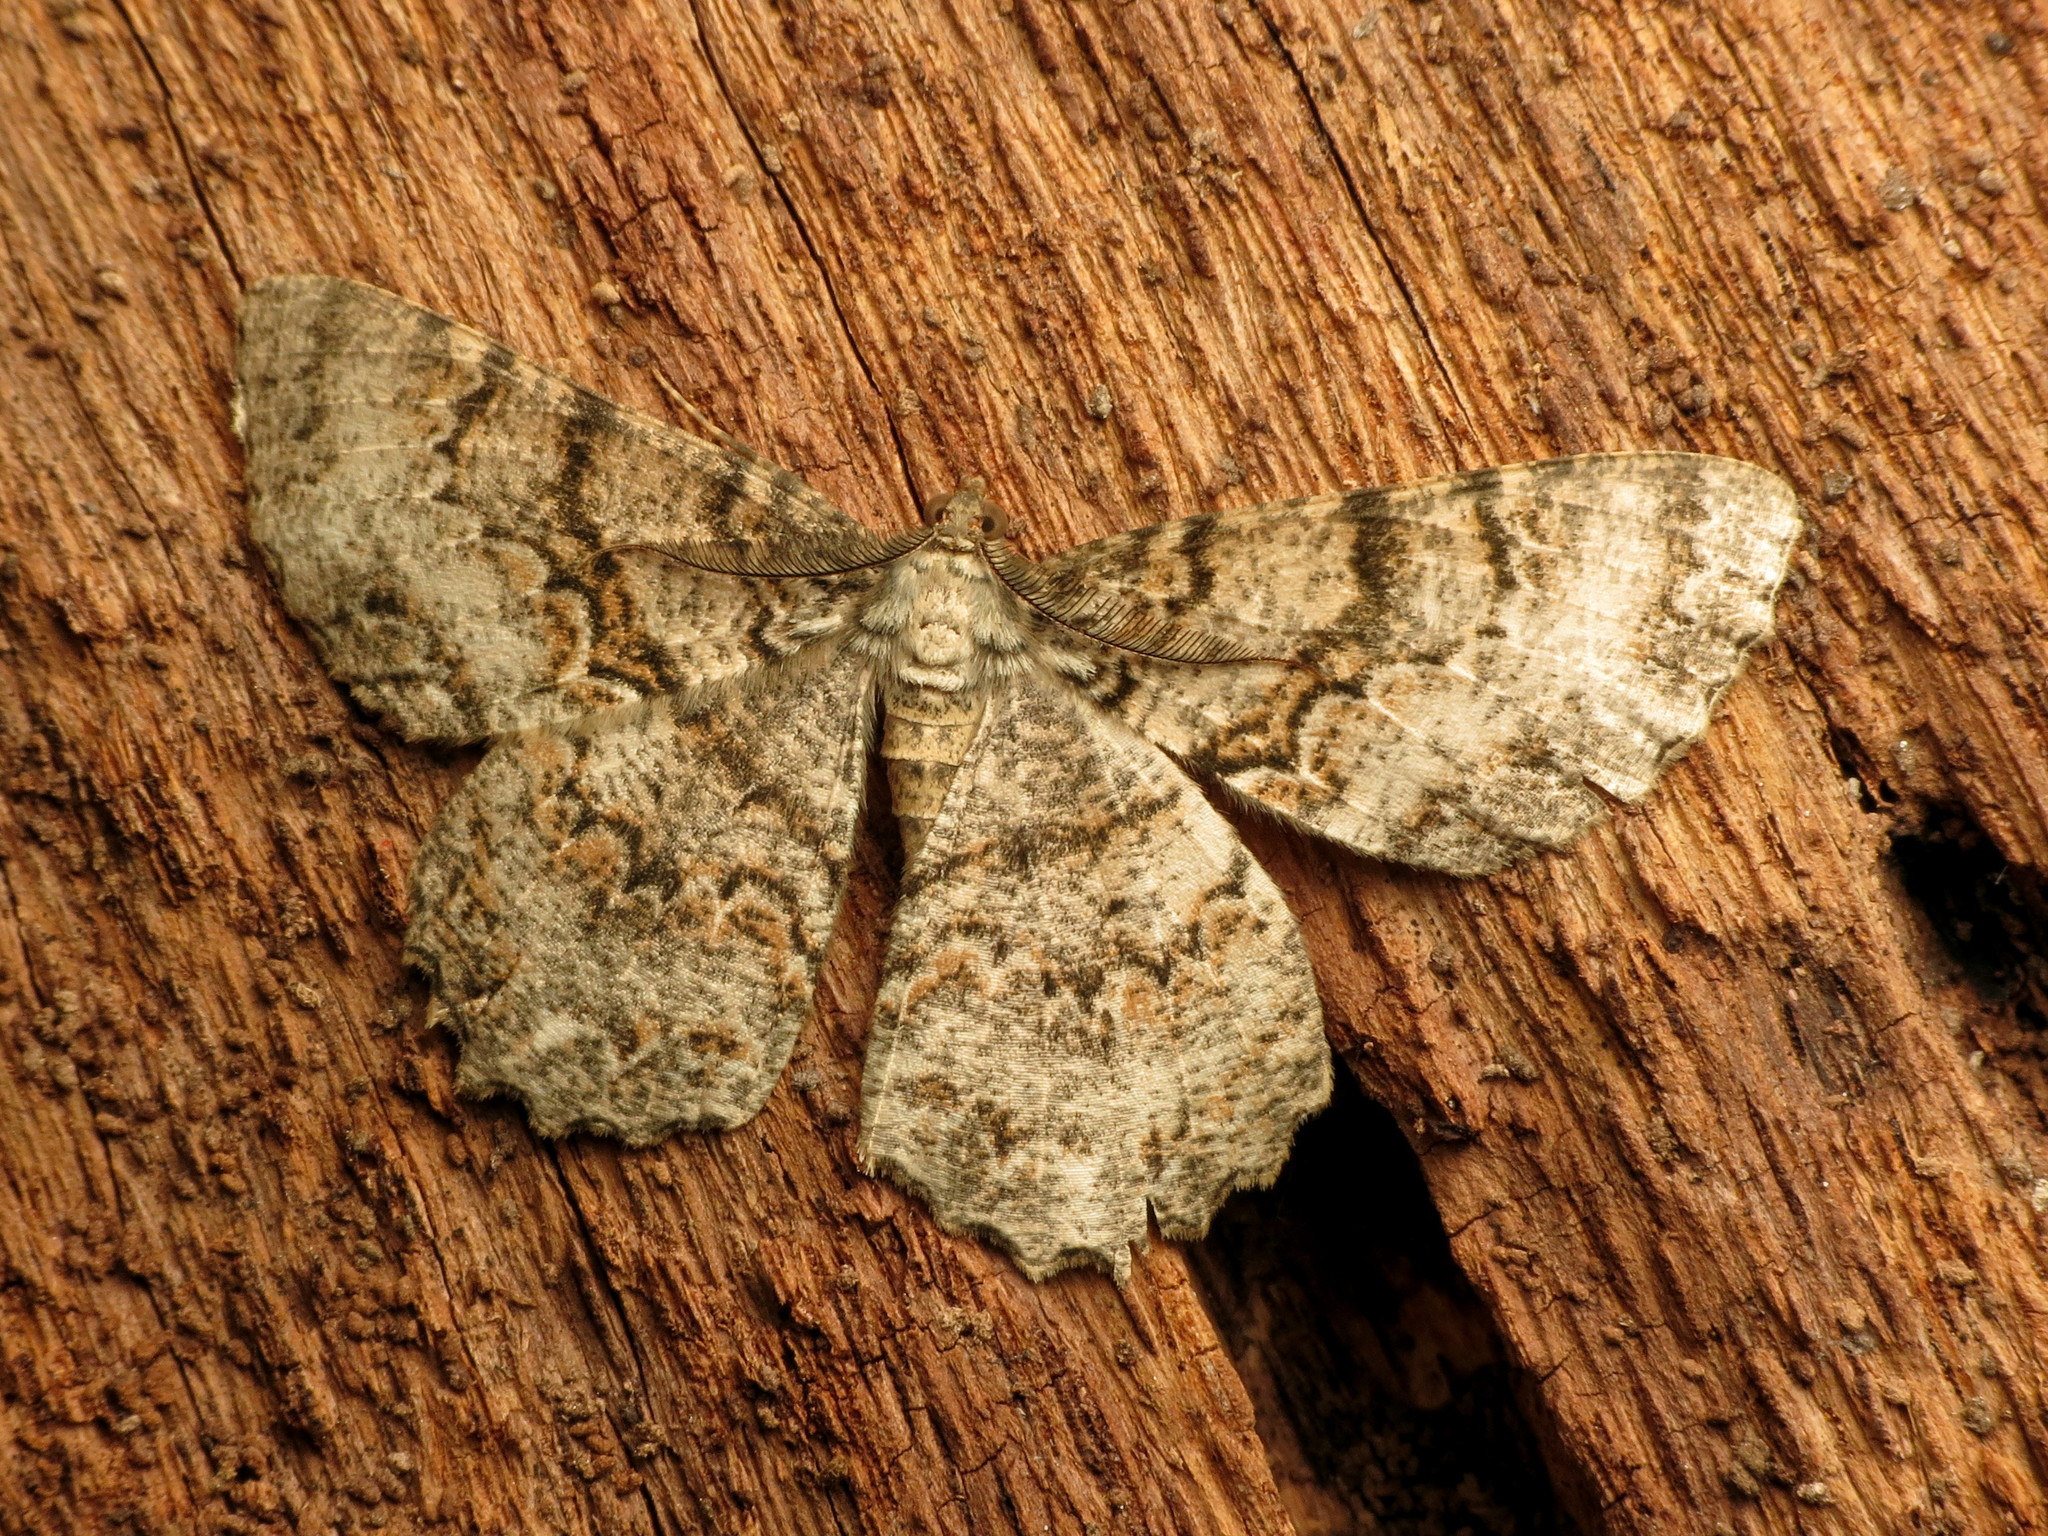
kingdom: Animalia
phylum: Arthropoda
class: Insecta
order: Lepidoptera
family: Geometridae
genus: Epimecis
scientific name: Epimecis hortaria
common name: Tulip-tree beauty
